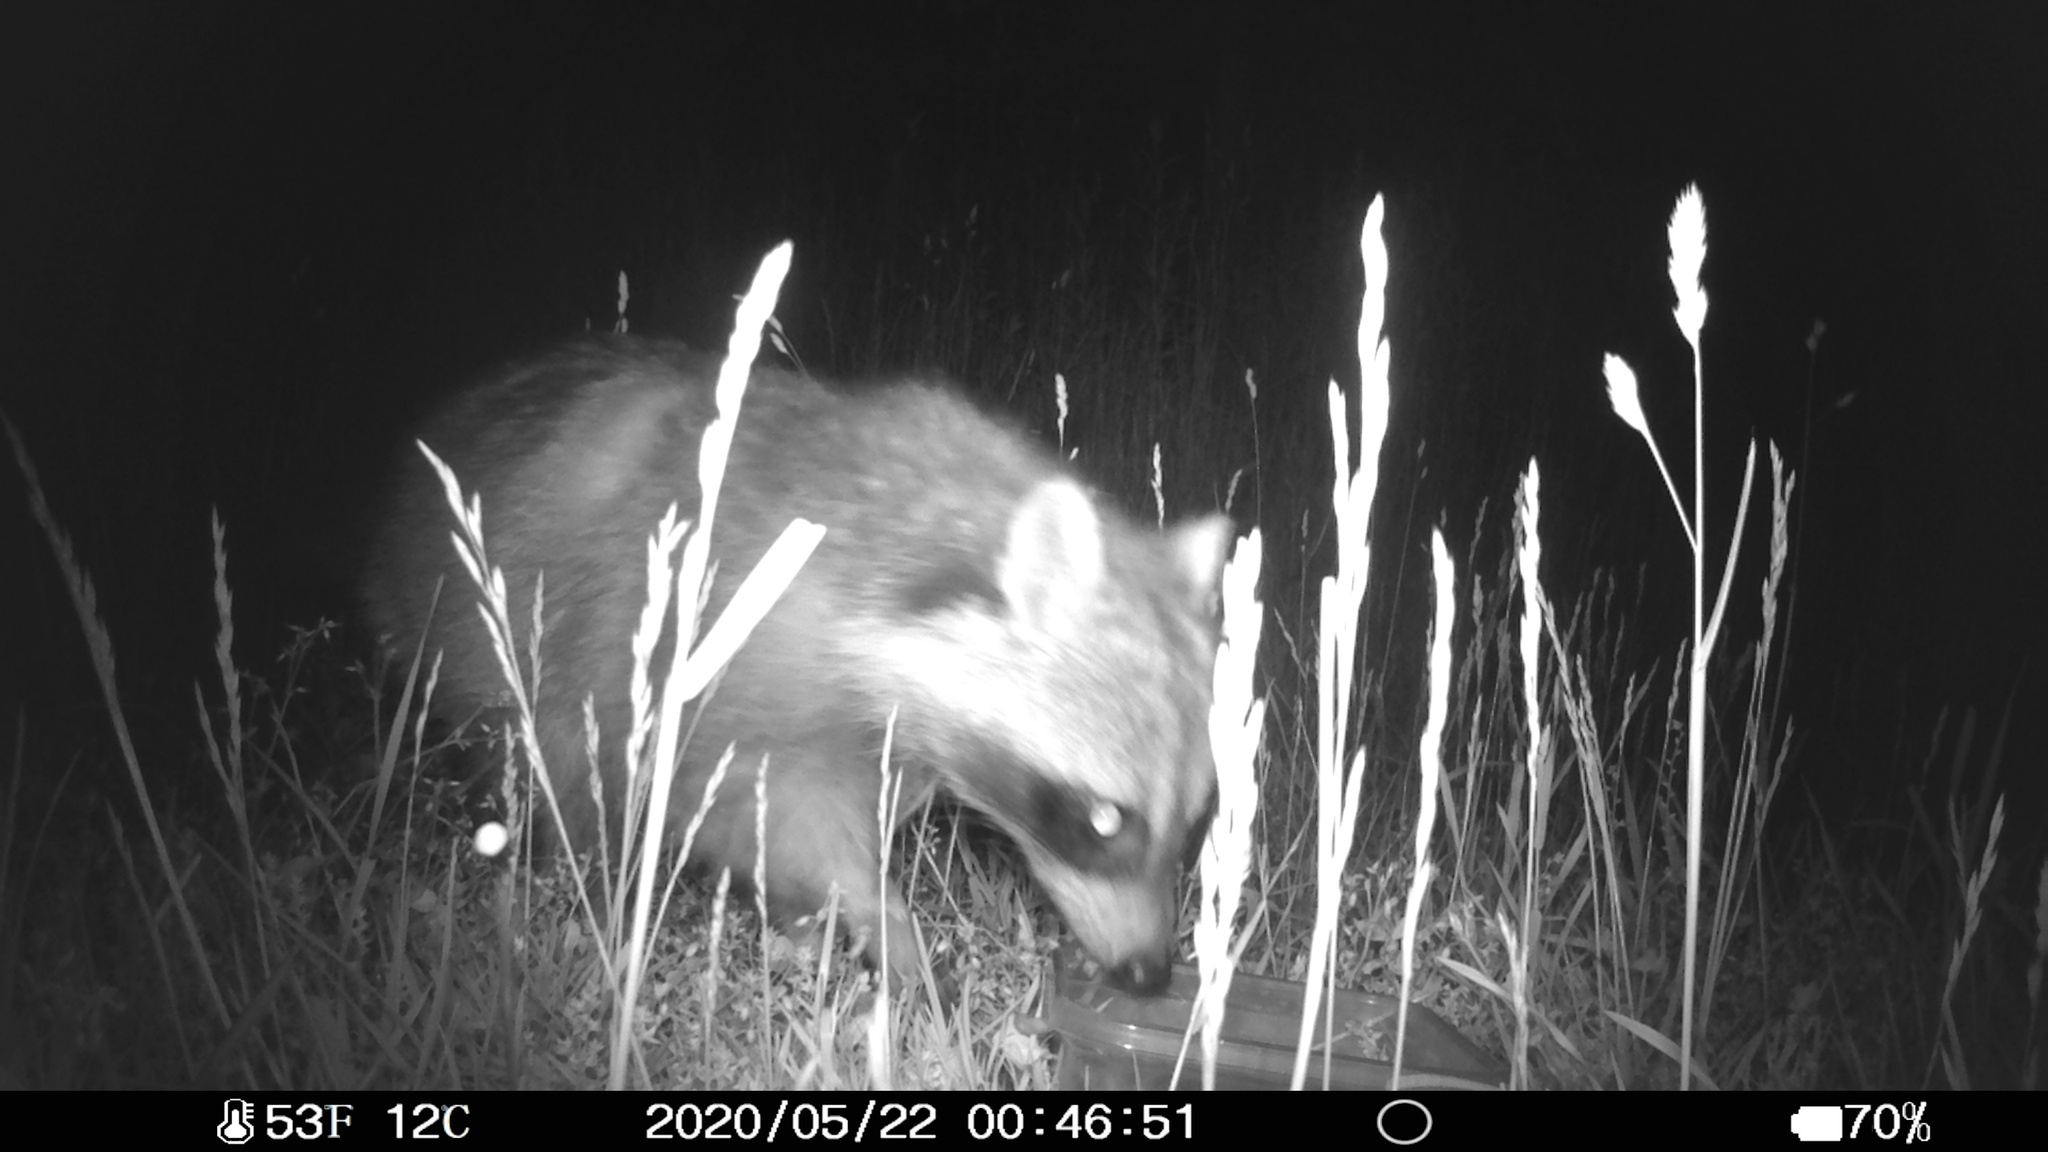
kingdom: Animalia
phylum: Chordata
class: Mammalia
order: Carnivora
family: Procyonidae
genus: Procyon
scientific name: Procyon lotor
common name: Raccoon
